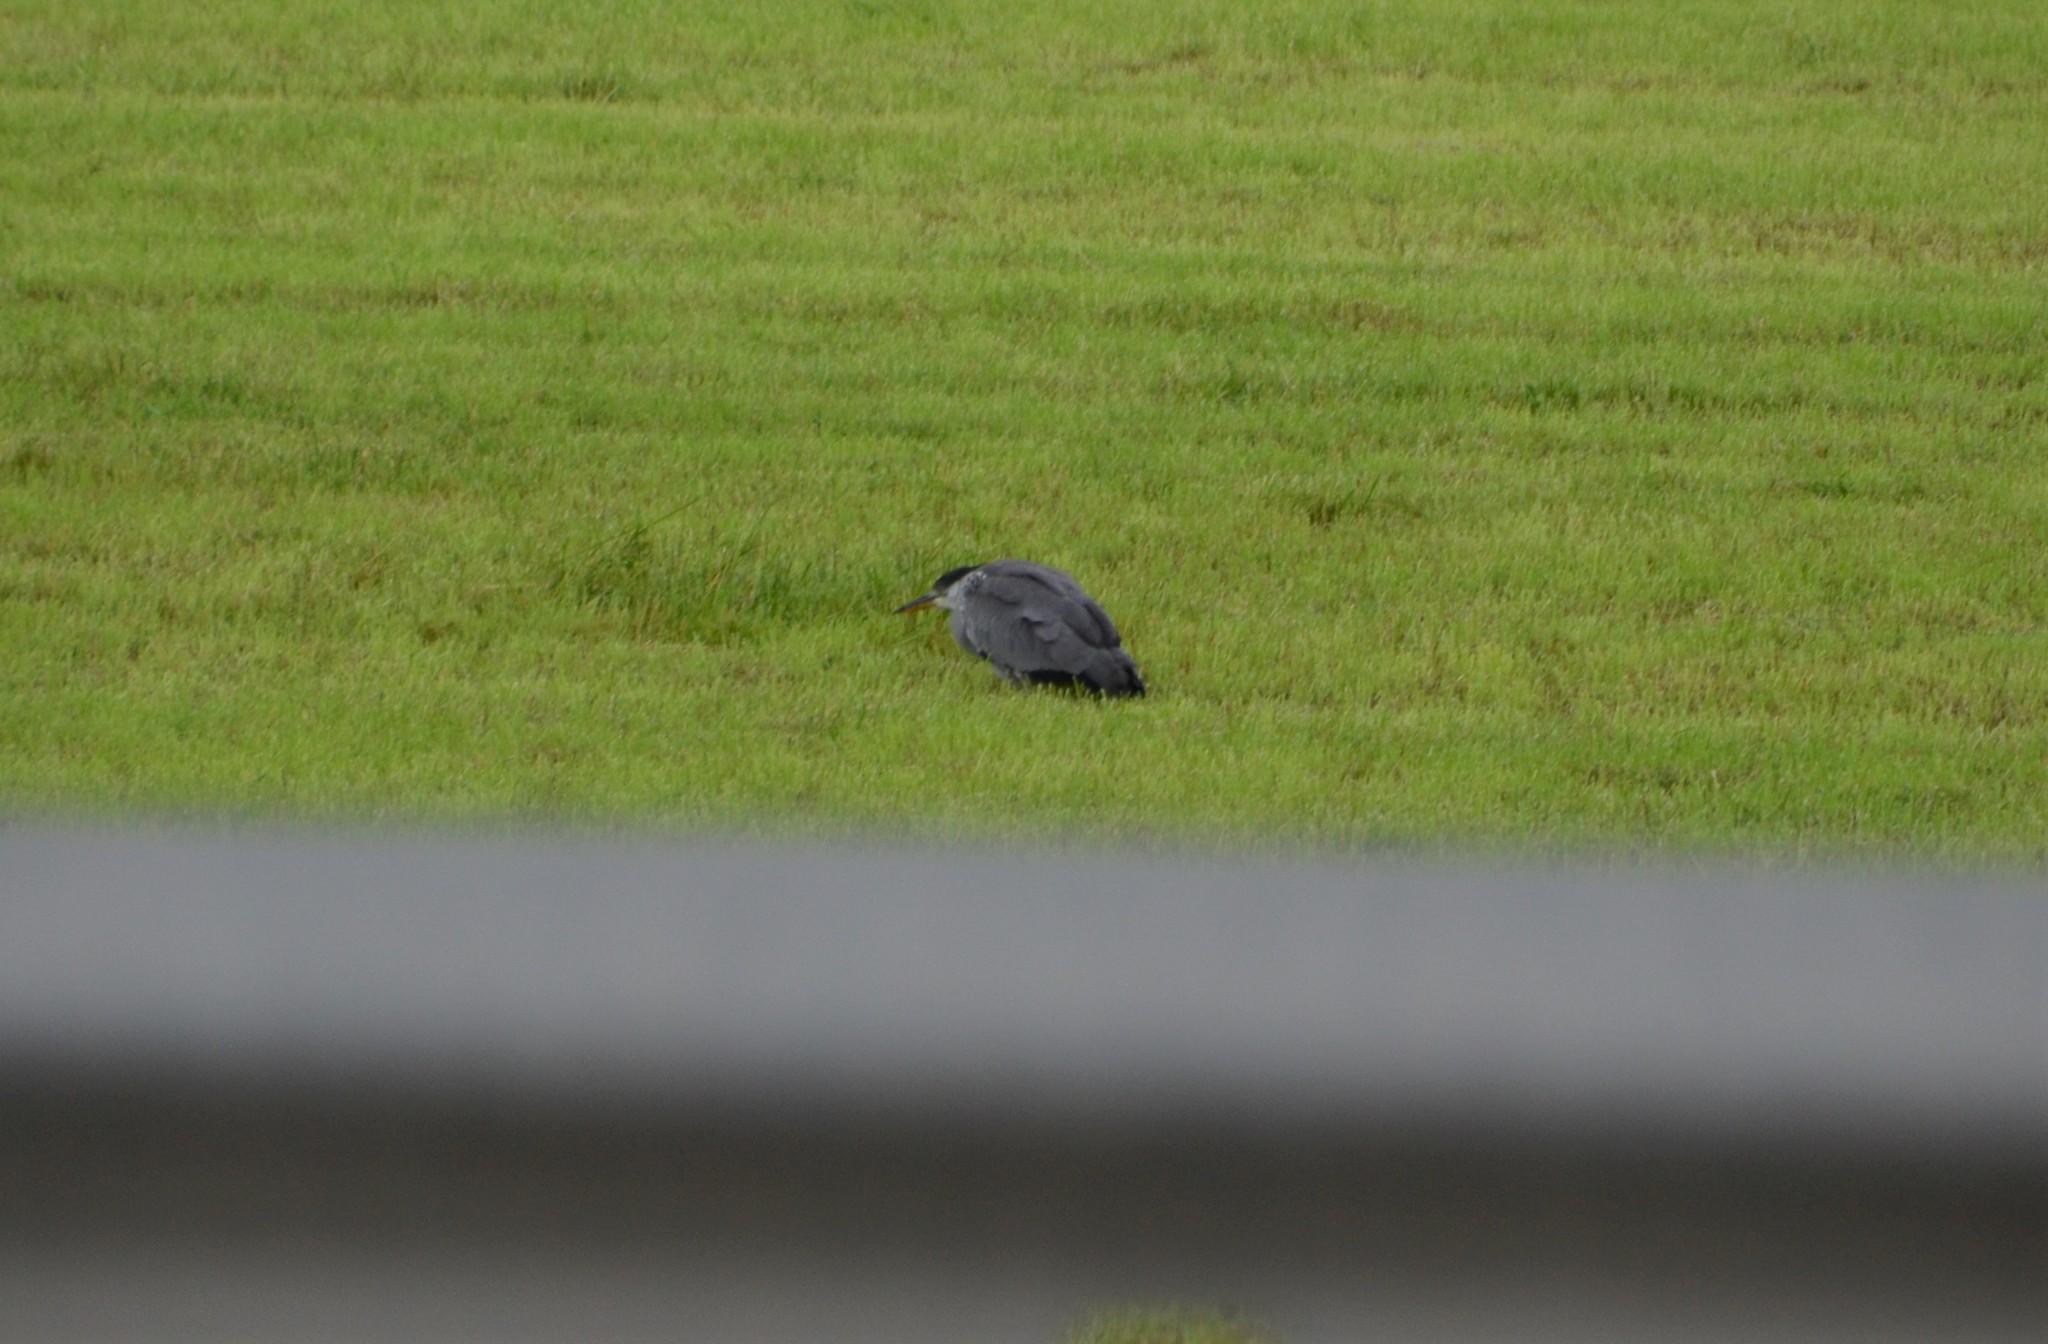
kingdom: Animalia
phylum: Chordata
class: Aves
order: Pelecaniformes
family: Ardeidae
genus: Ardea
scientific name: Ardea cinerea
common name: Grey heron
